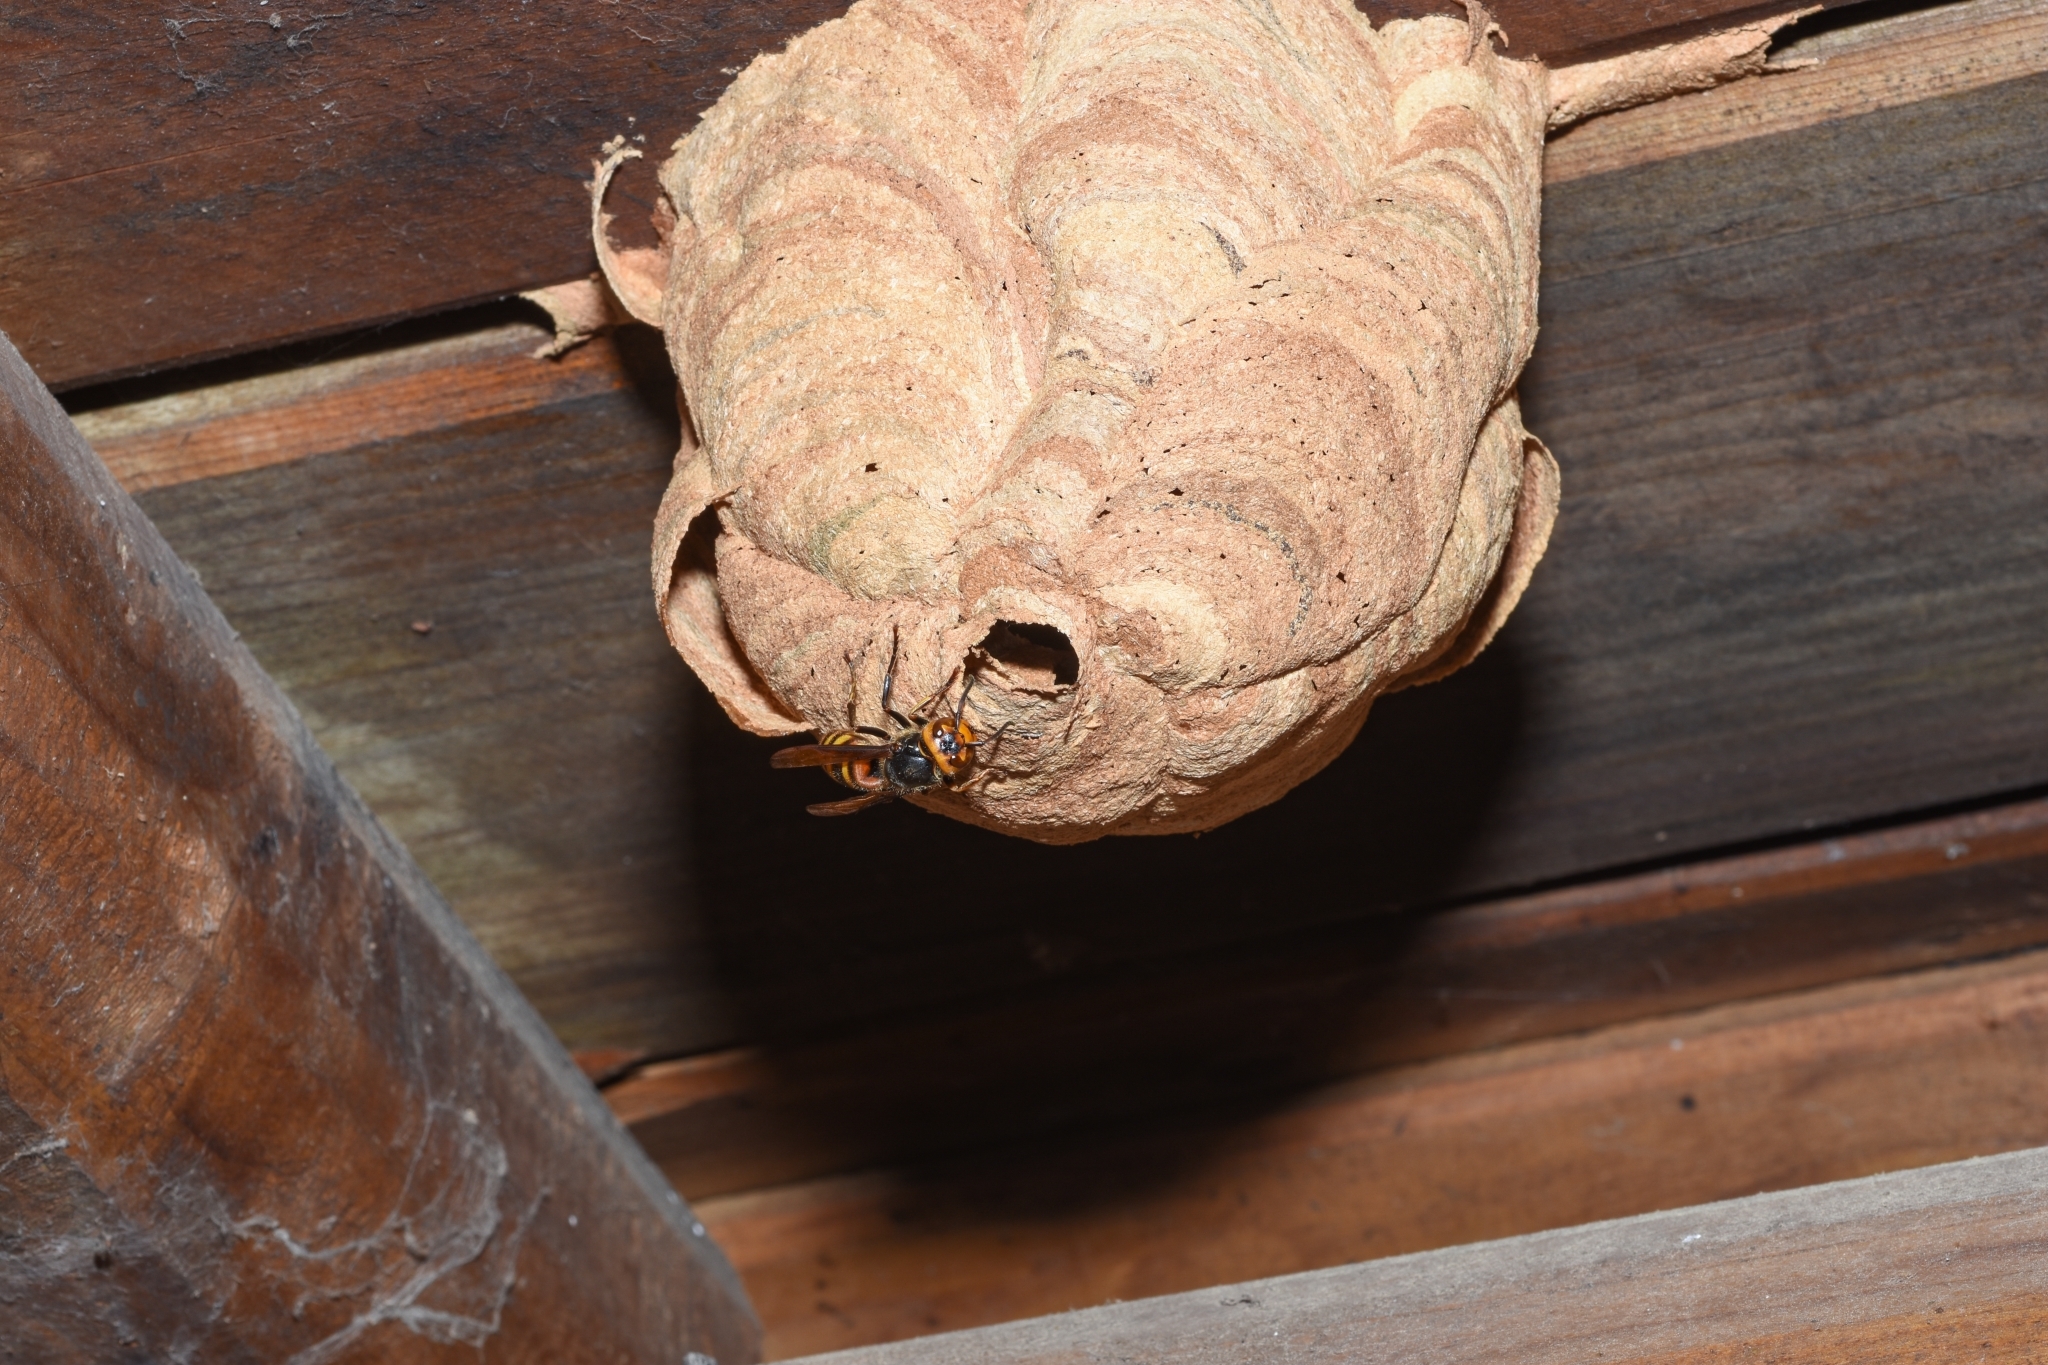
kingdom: Animalia
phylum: Arthropoda
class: Insecta
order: Hymenoptera
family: Vespidae
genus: Vespa
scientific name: Vespa analis
